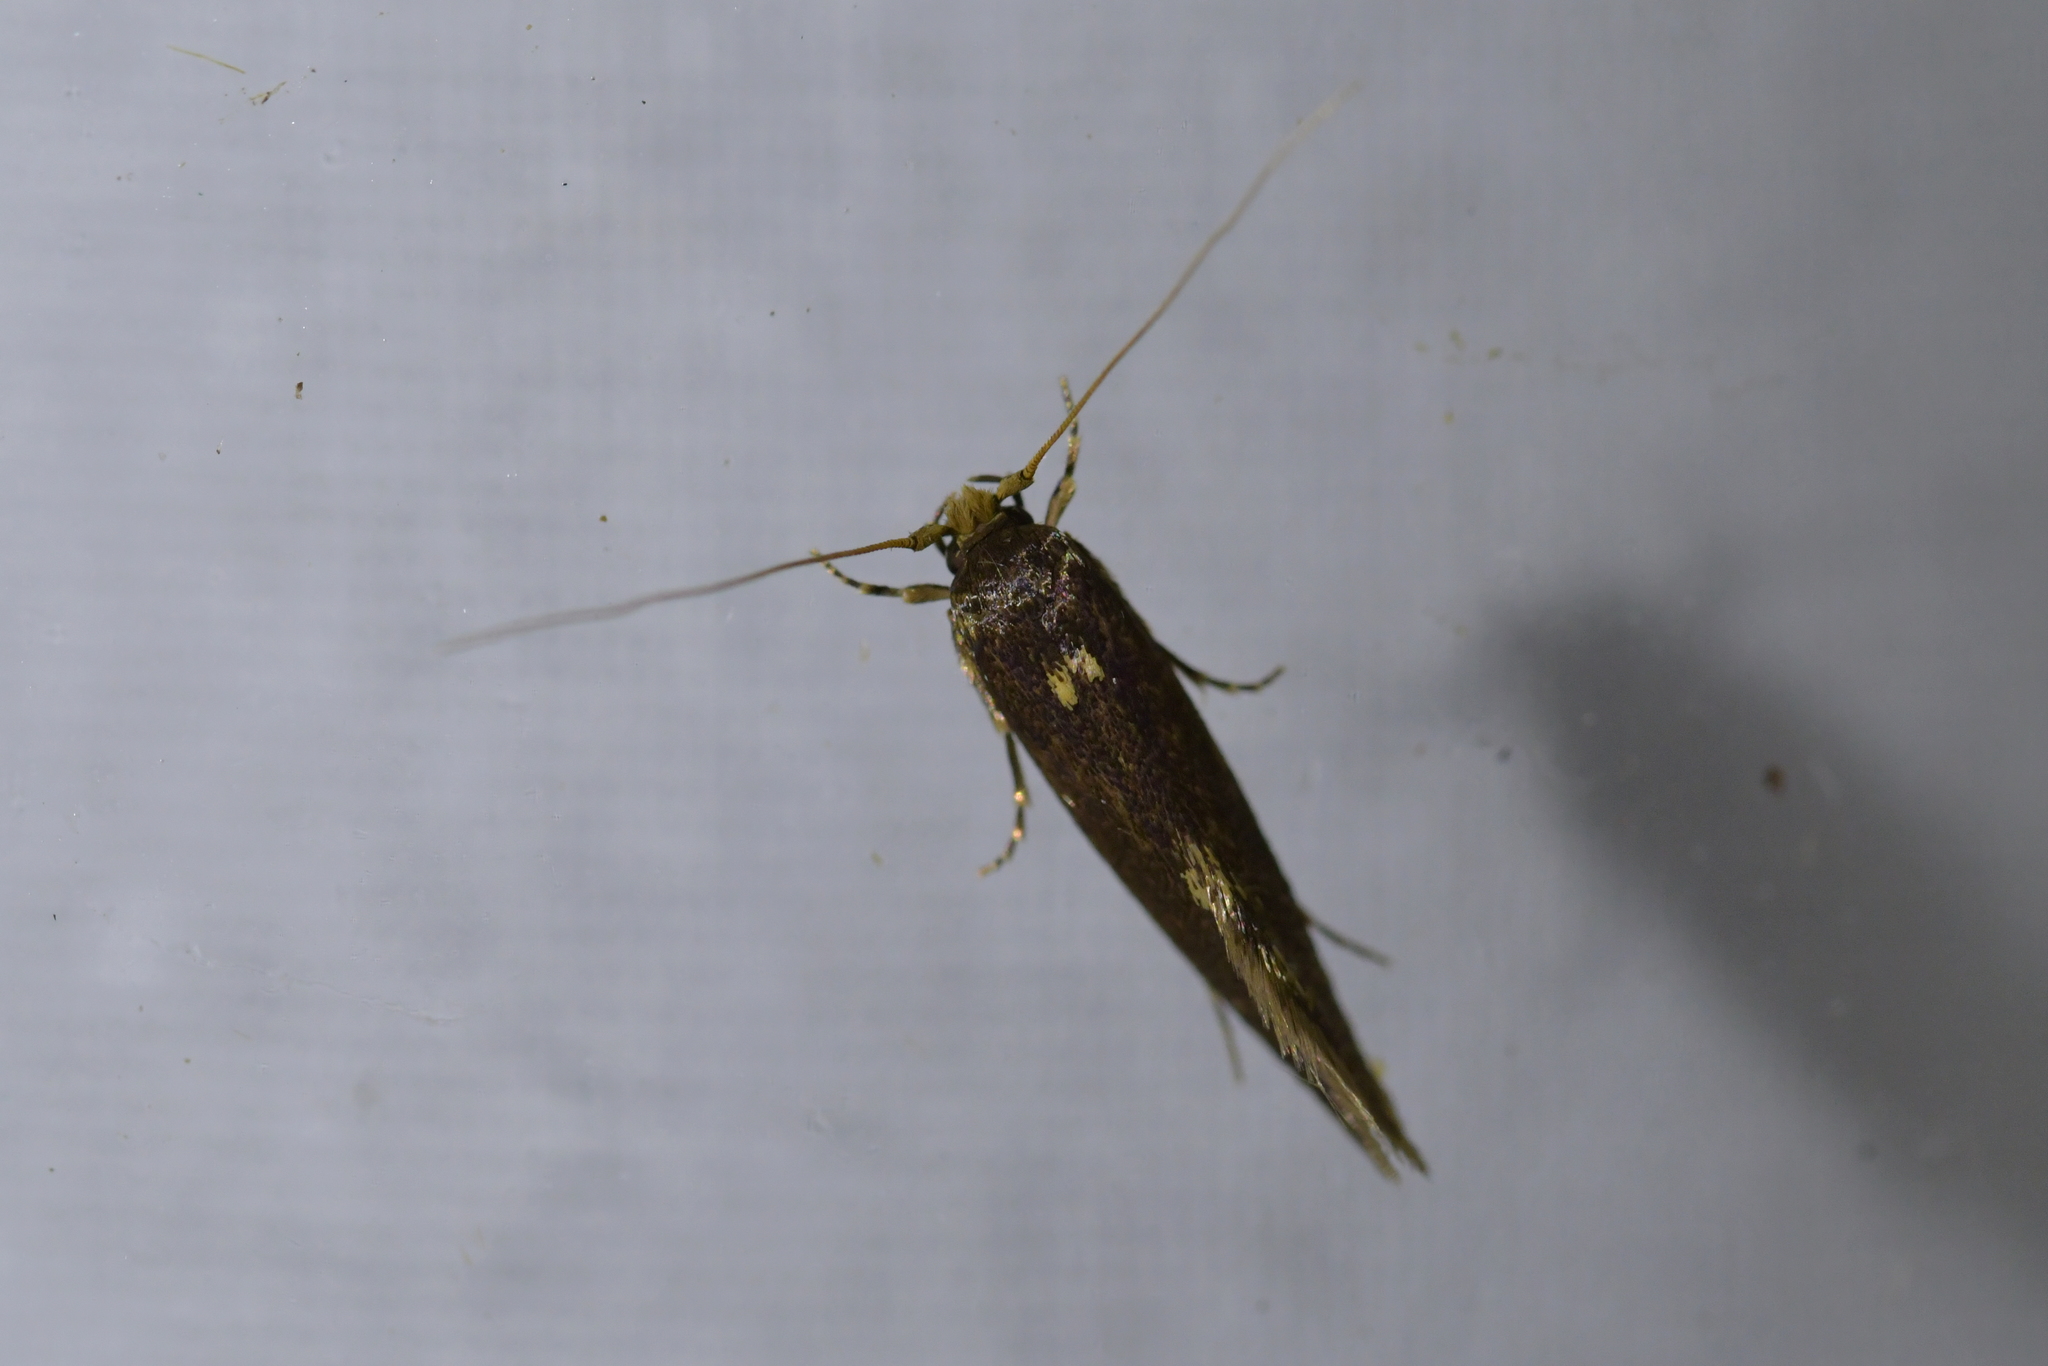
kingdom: Animalia
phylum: Arthropoda
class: Insecta
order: Lepidoptera
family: Tineidae
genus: Opogona
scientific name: Opogona omoscopa
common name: Moth
